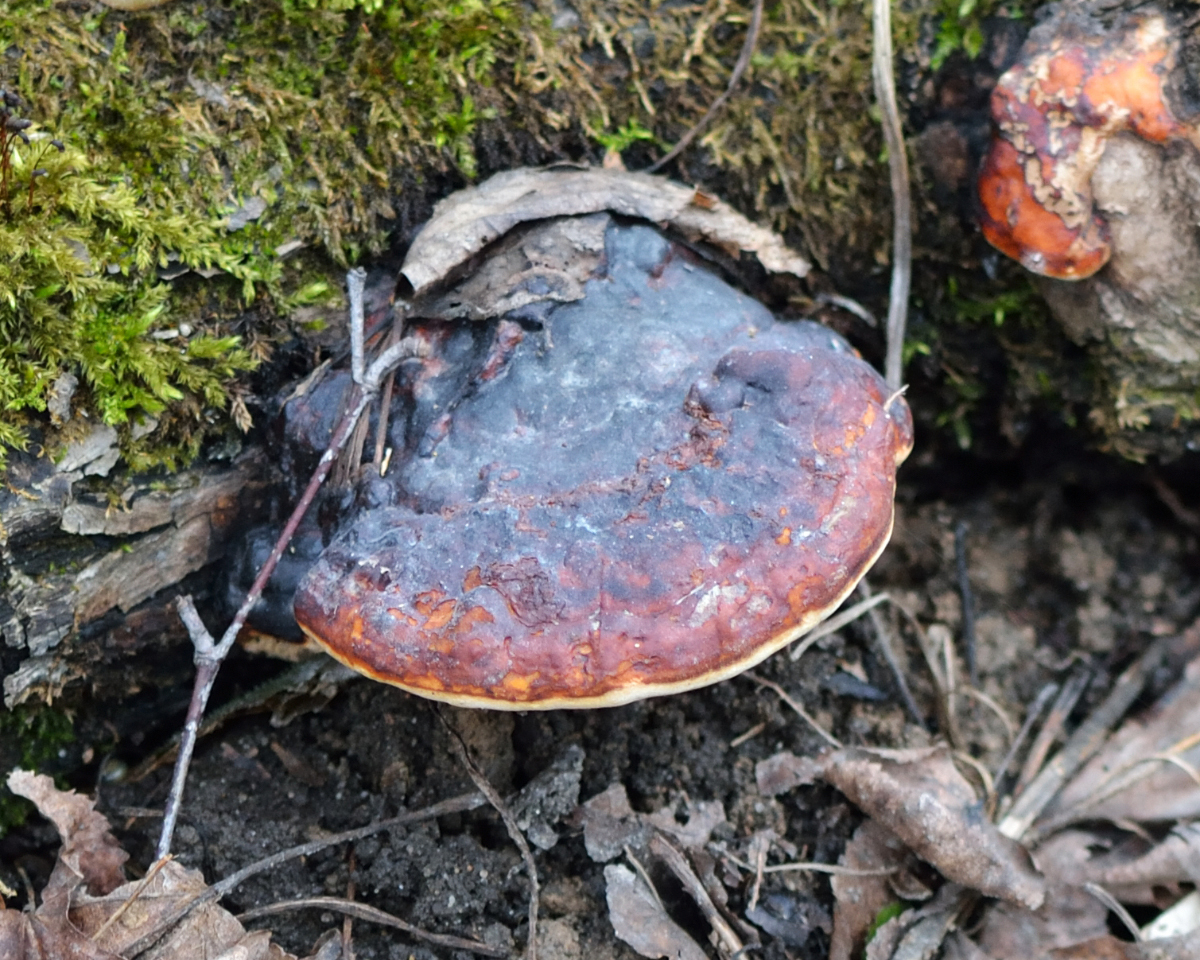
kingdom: Fungi
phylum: Basidiomycota
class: Agaricomycetes
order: Polyporales
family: Fomitopsidaceae
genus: Fomitopsis
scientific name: Fomitopsis pinicola
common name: Red-belted bracket
